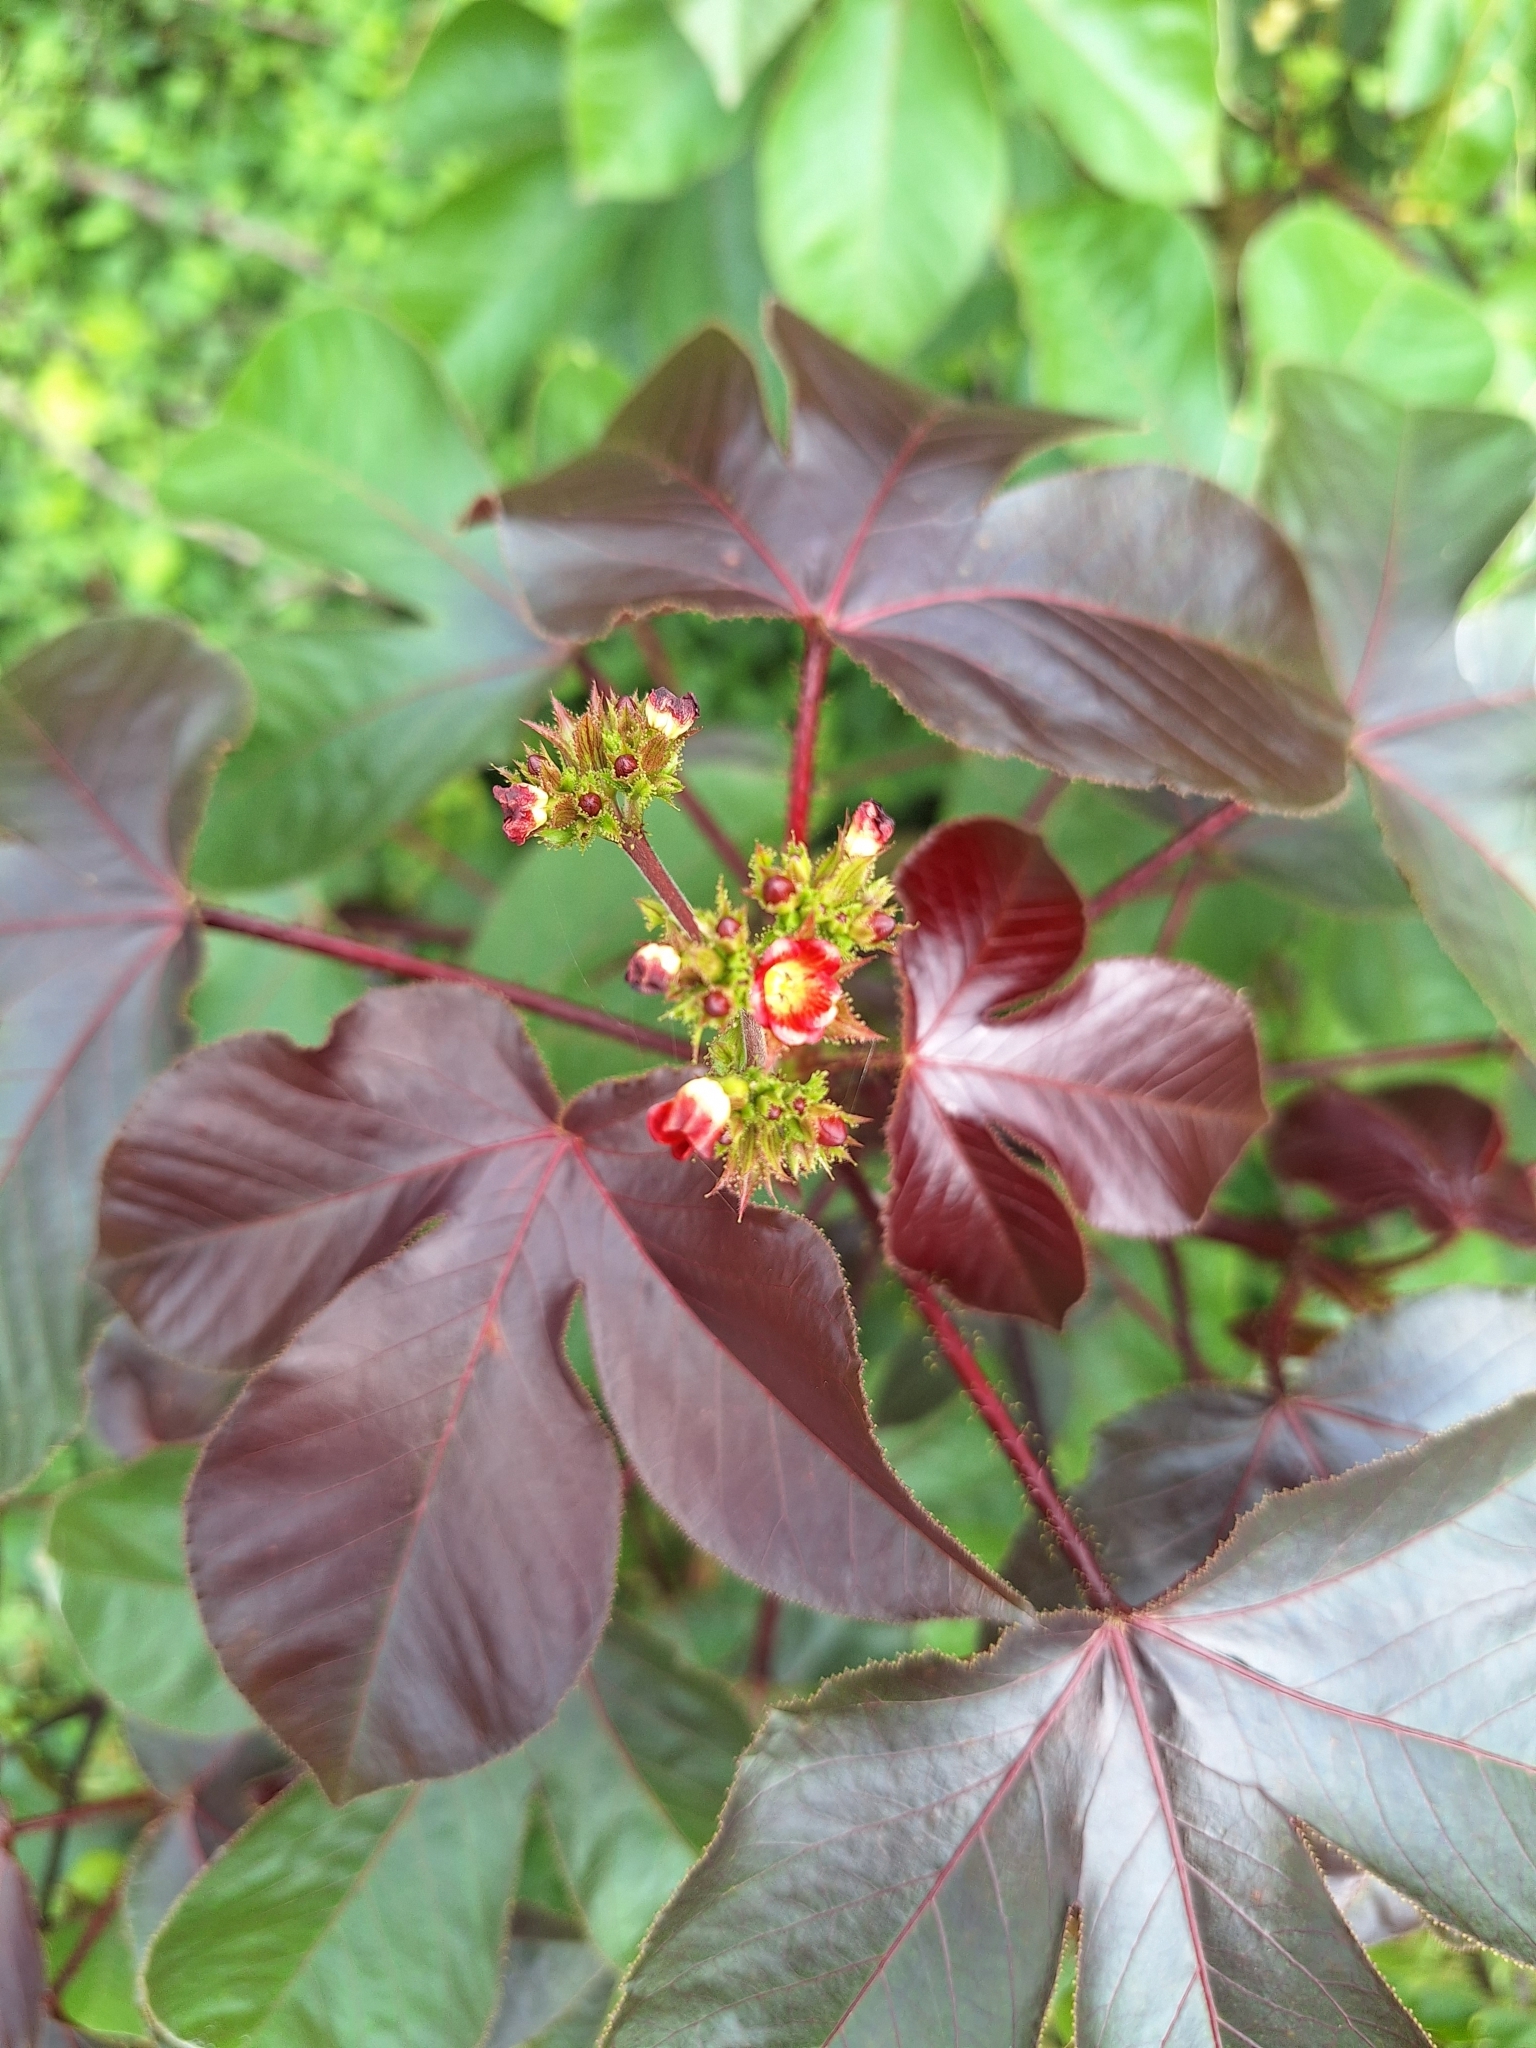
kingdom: Plantae
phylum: Tracheophyta
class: Magnoliopsida
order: Malpighiales
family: Euphorbiaceae
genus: Jatropha
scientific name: Jatropha gossypiifolia
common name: Bellyache bush
